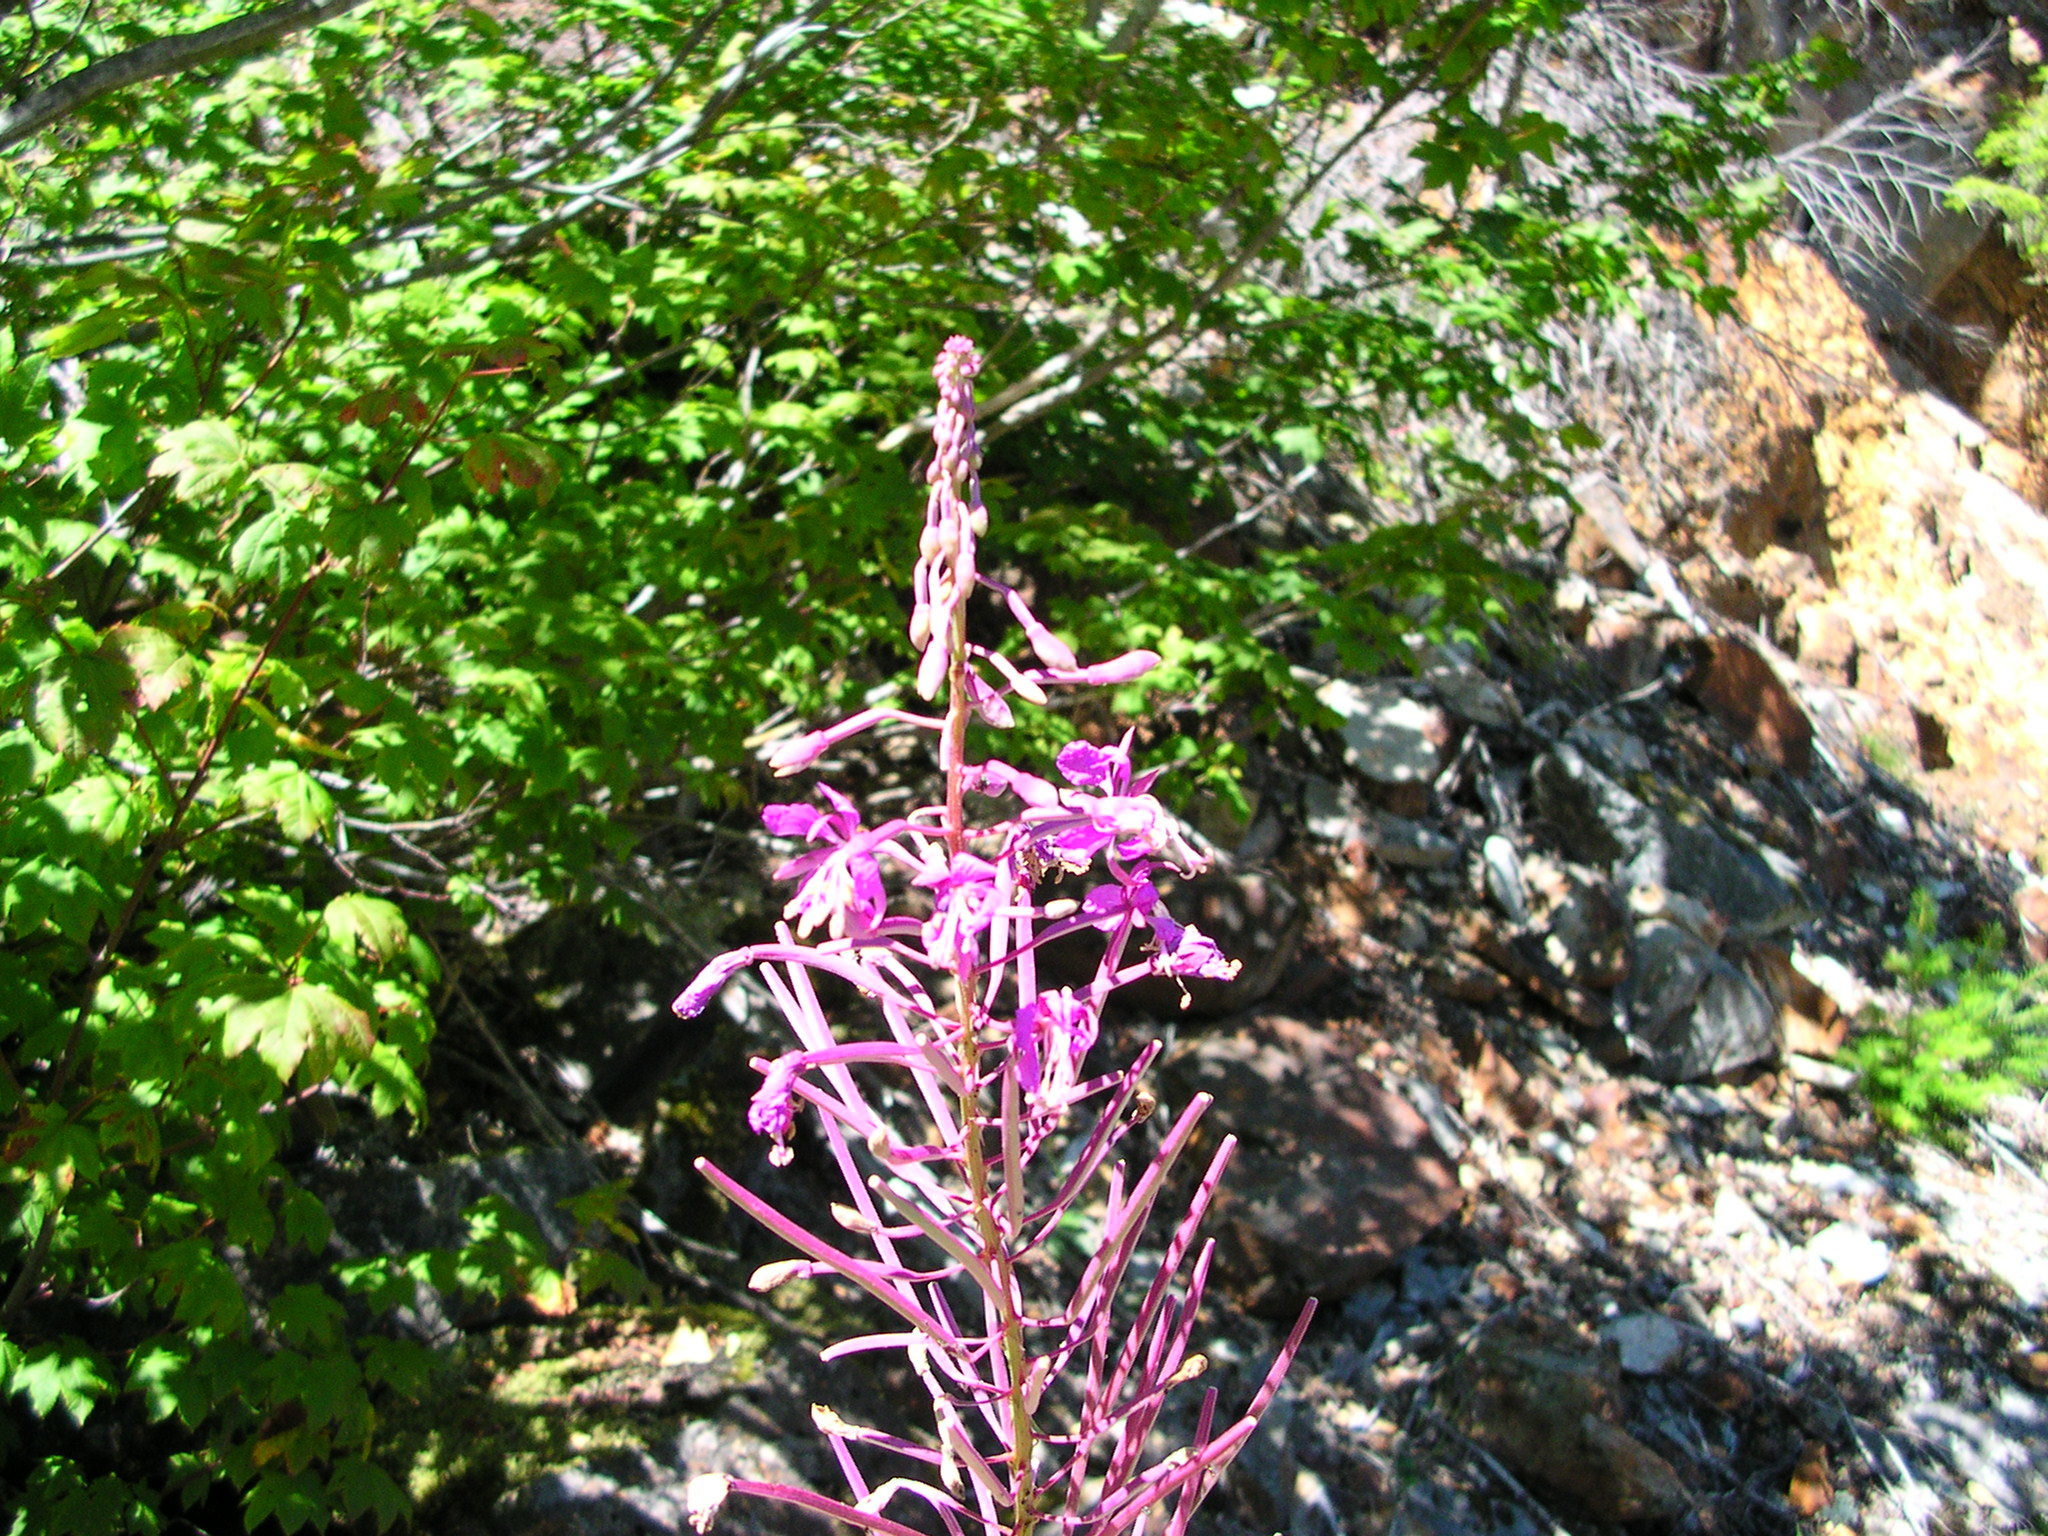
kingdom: Plantae
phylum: Tracheophyta
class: Magnoliopsida
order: Myrtales
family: Onagraceae
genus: Chamaenerion
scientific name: Chamaenerion angustifolium
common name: Fireweed
